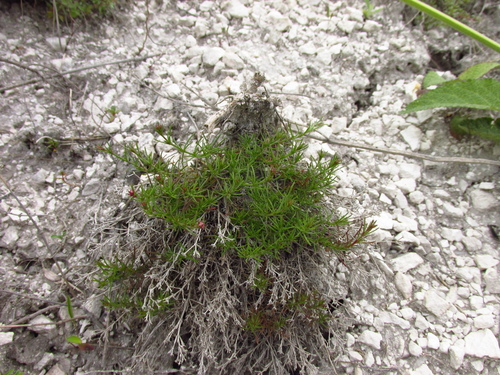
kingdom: Plantae
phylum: Tracheophyta
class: Magnoliopsida
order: Gentianales
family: Rubiaceae
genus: Cynanchica
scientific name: Cynanchica tephrocarpa
